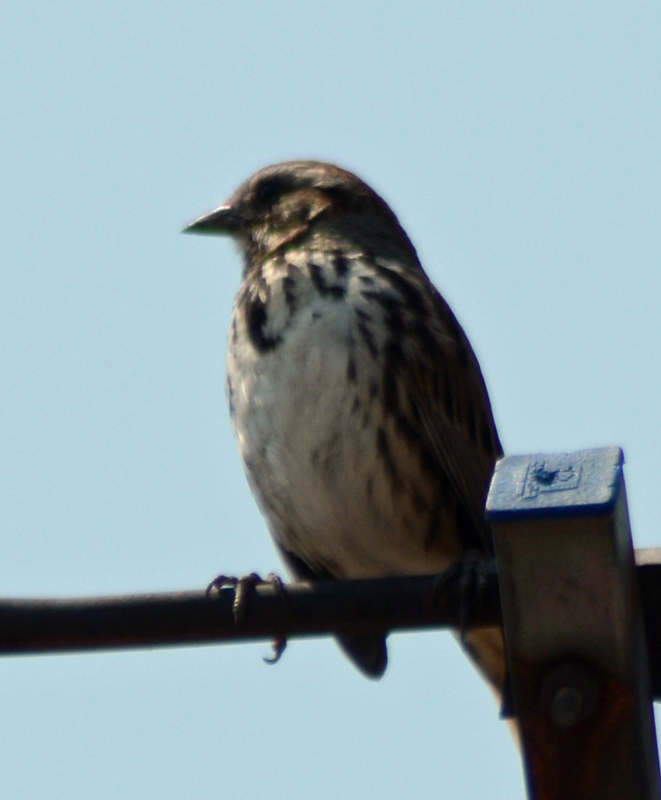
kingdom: Animalia
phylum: Chordata
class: Aves
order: Passeriformes
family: Passerellidae
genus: Melospiza
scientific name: Melospiza melodia
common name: Song sparrow
